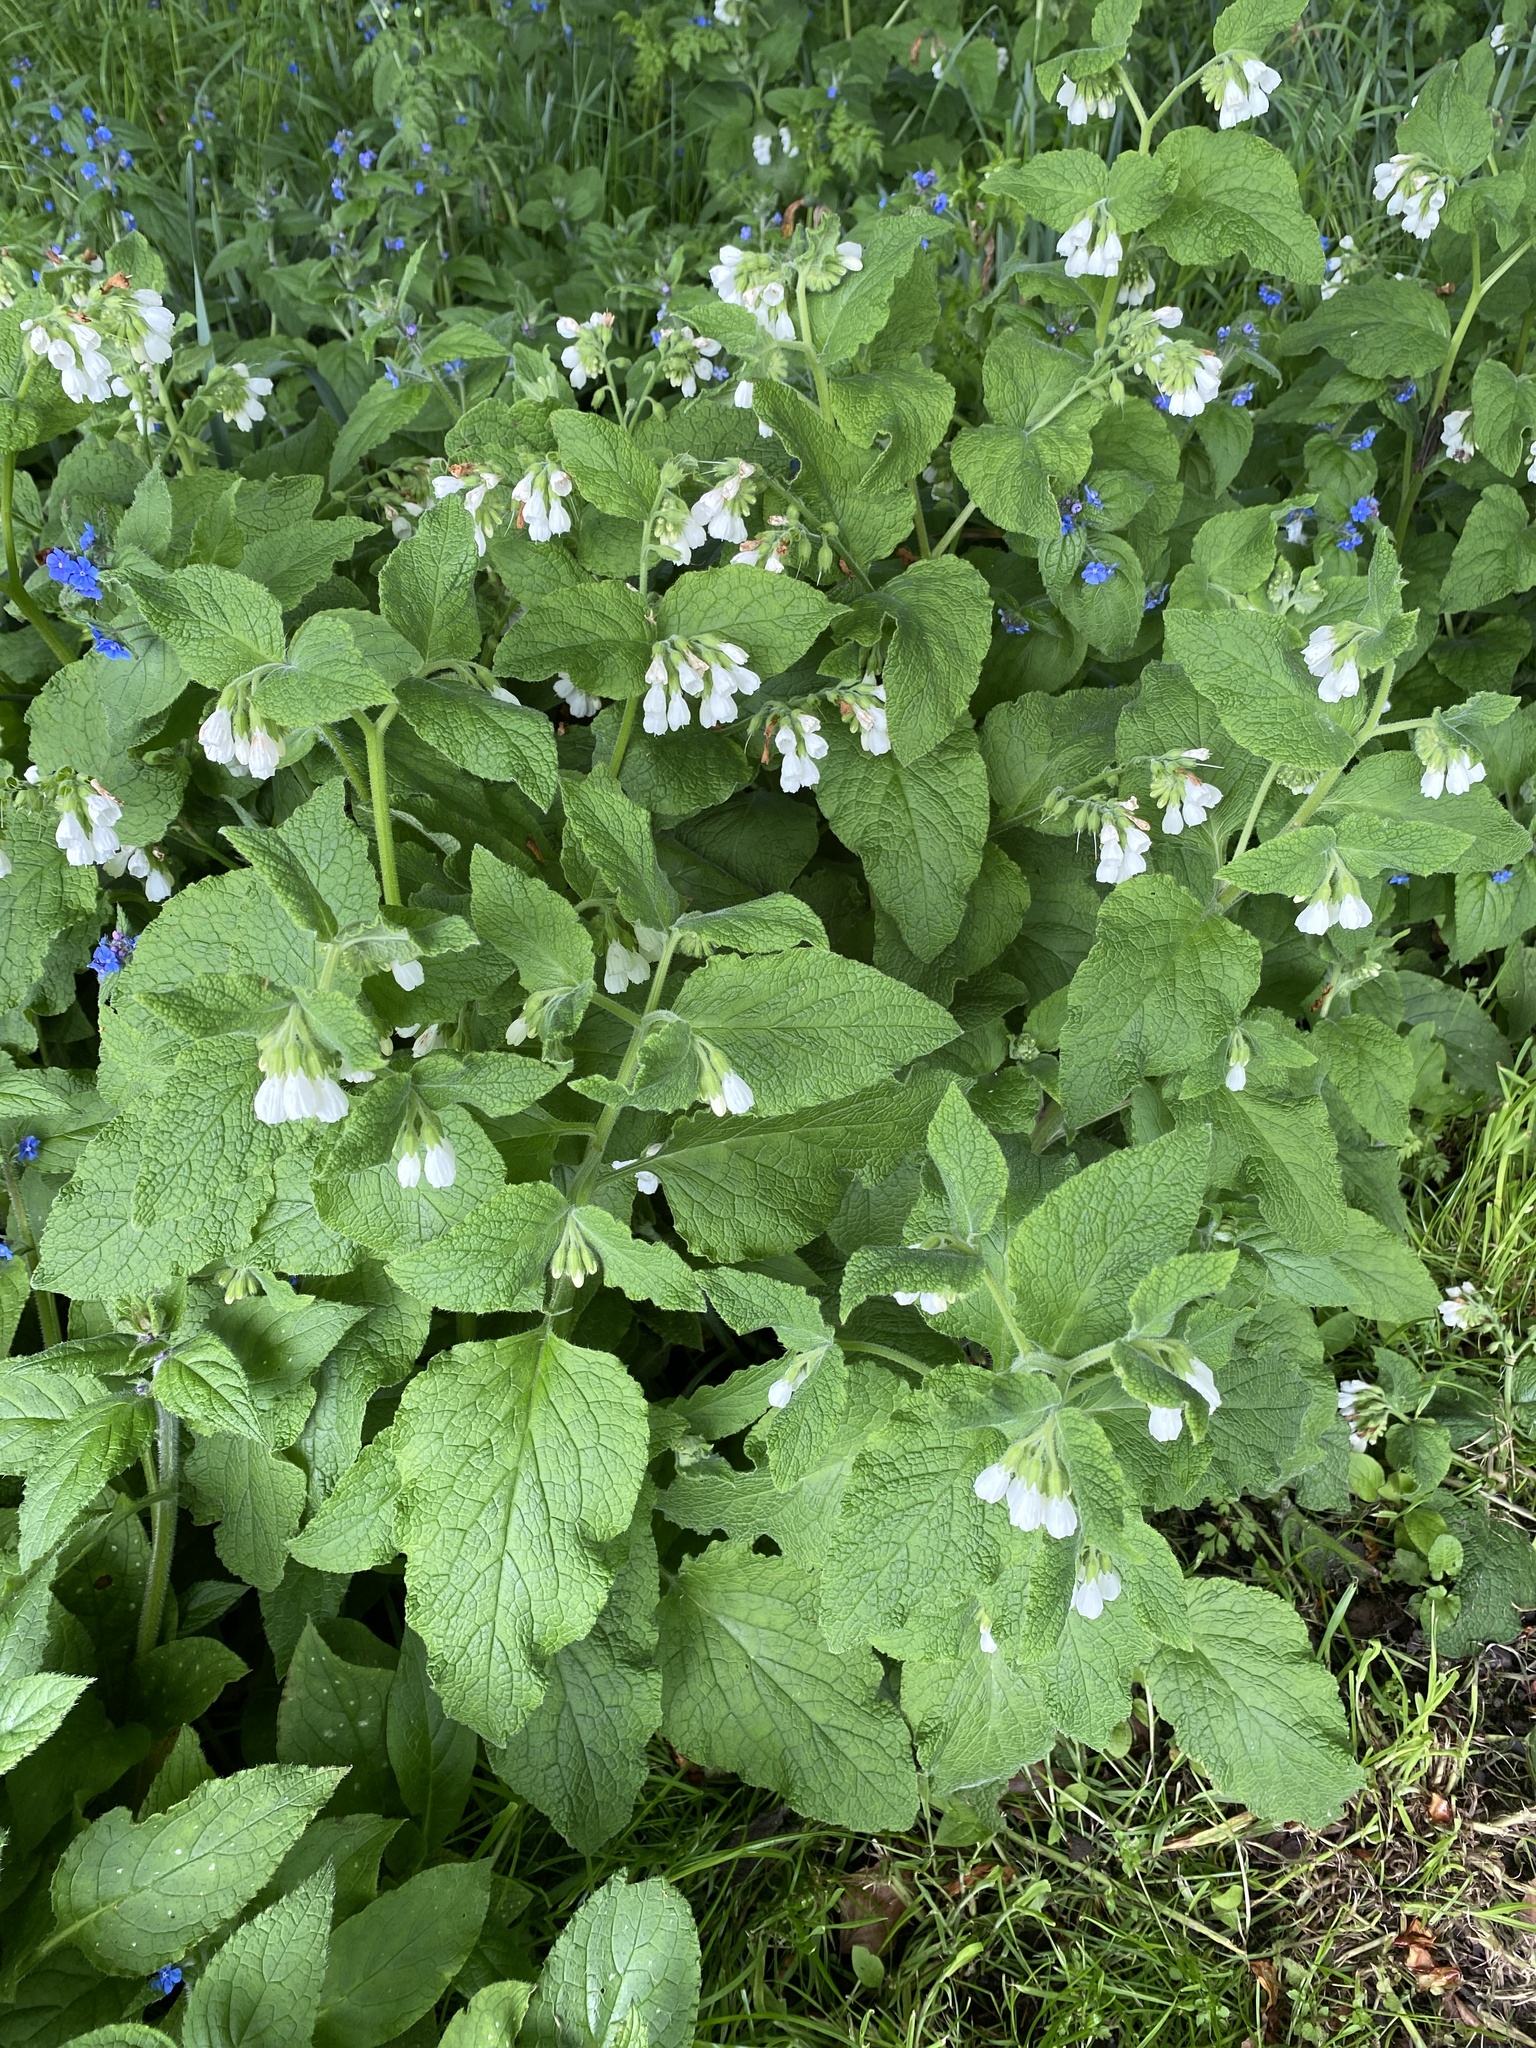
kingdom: Plantae
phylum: Tracheophyta
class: Magnoliopsida
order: Boraginales
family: Boraginaceae
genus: Symphytum
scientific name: Symphytum orientale
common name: White comfrey
